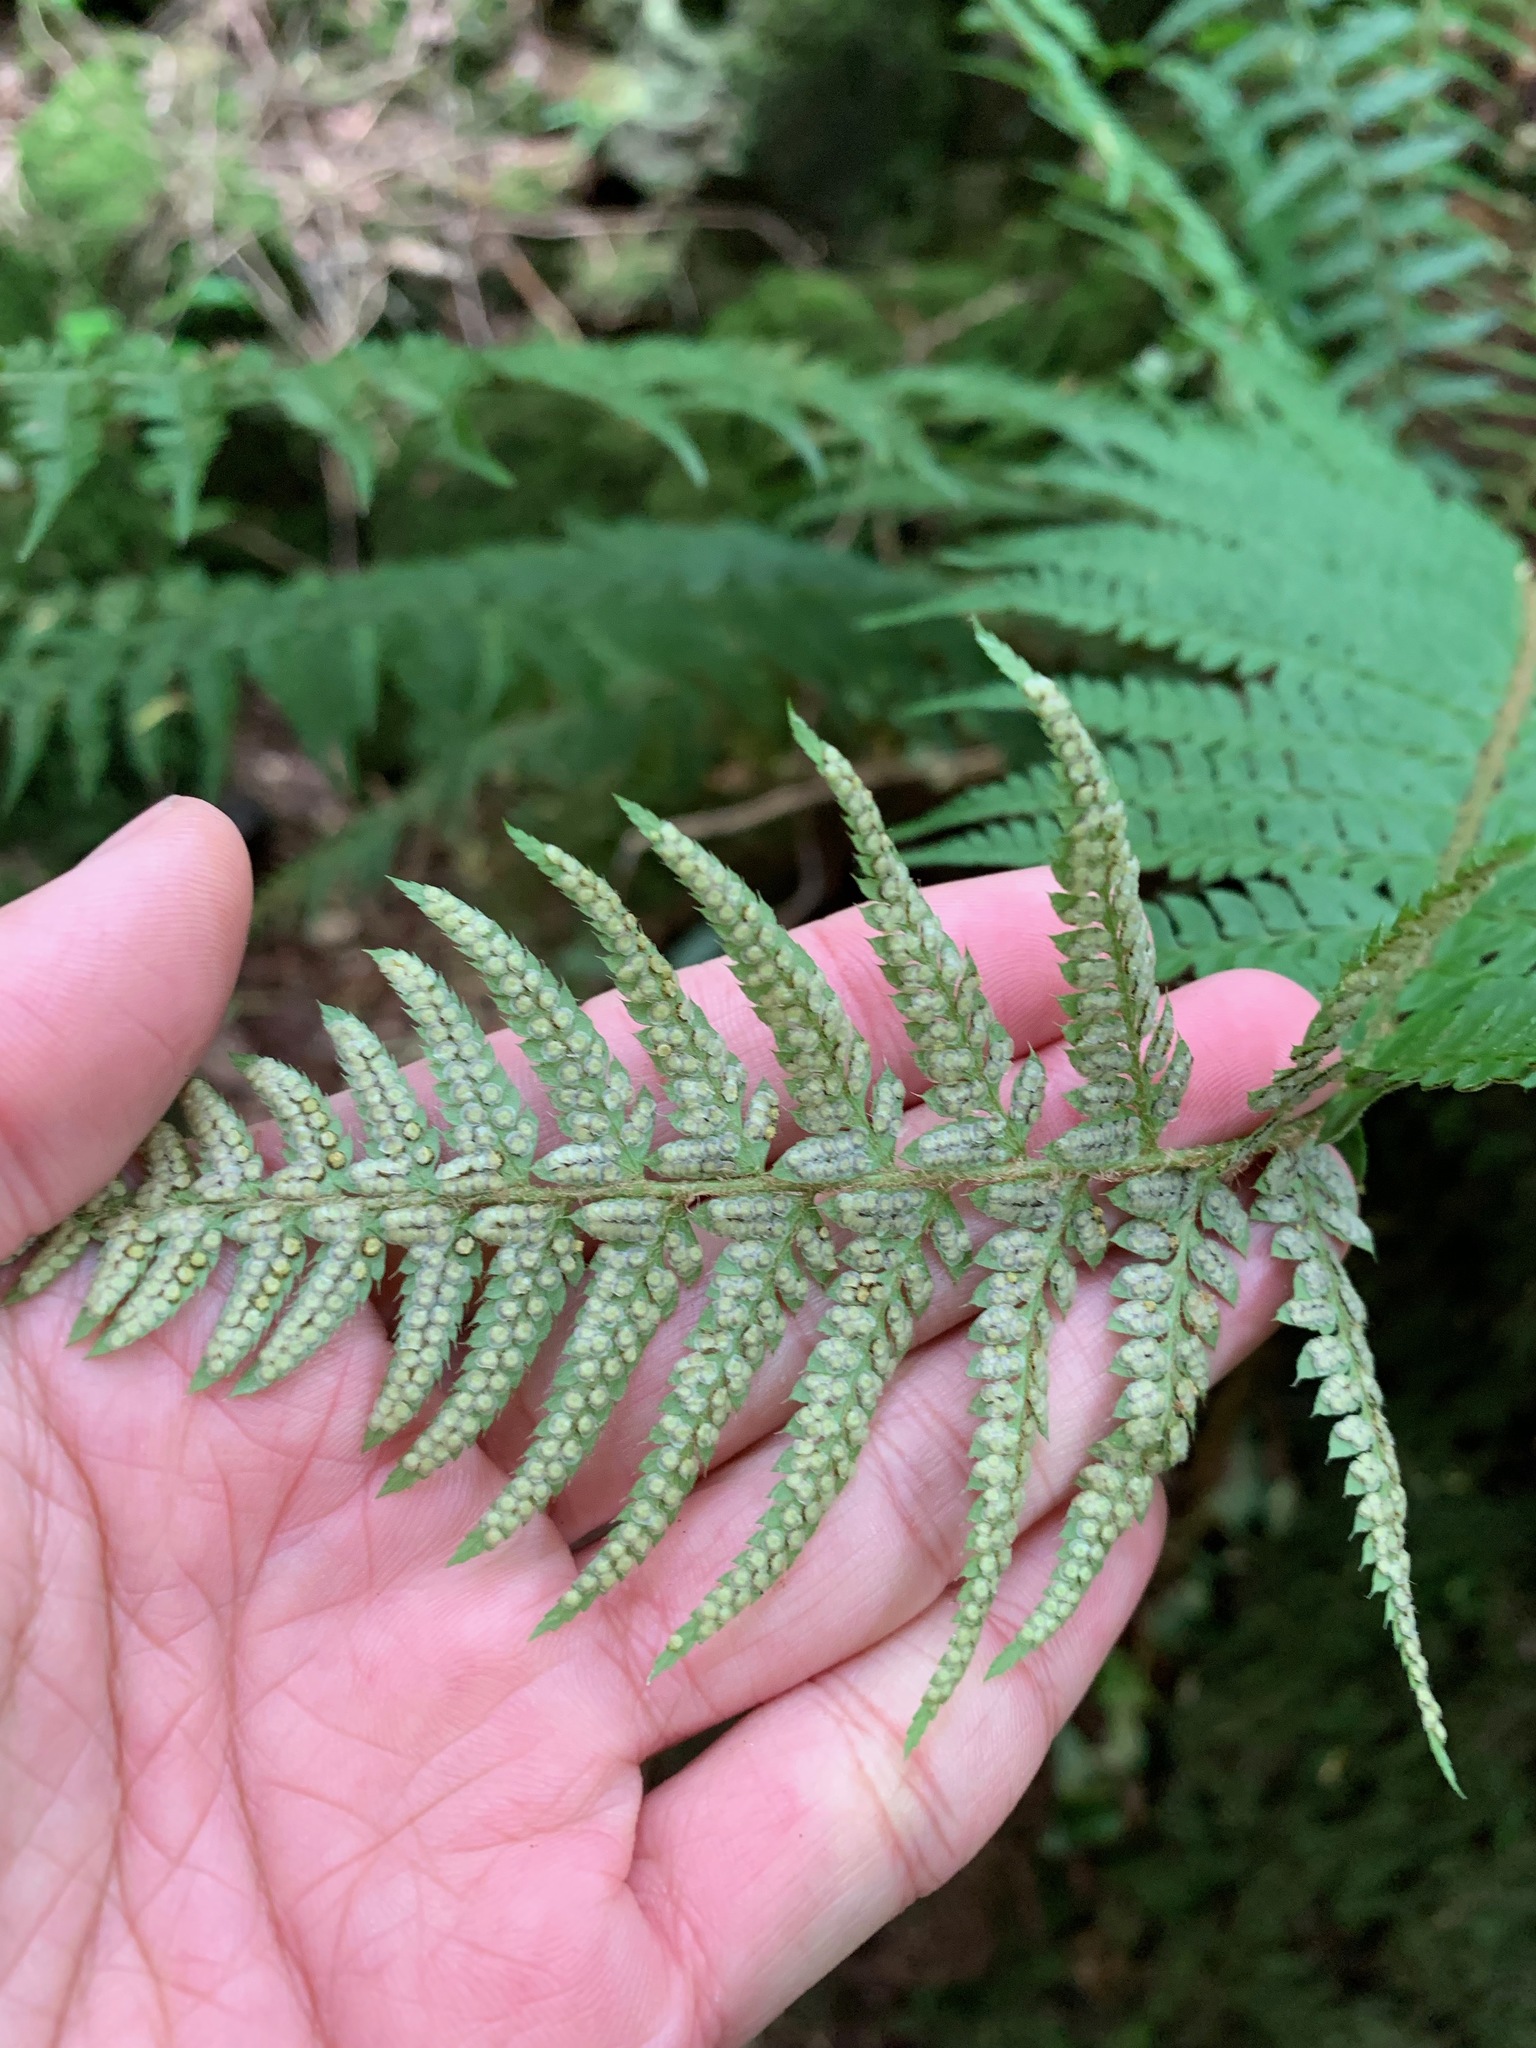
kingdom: Plantae
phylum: Tracheophyta
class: Polypodiopsida
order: Polypodiales
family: Dryopteridaceae
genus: Polystichum
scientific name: Polystichum aculeatum
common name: Hard shield-fern
